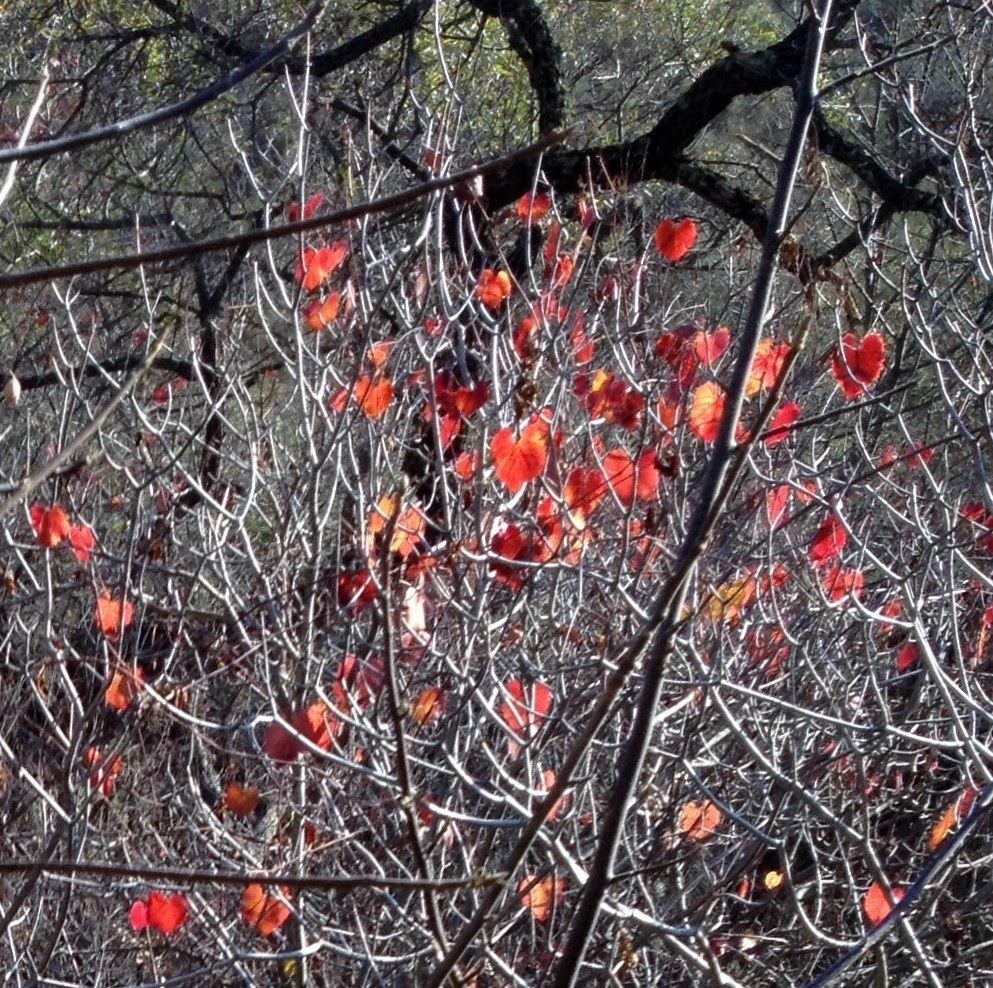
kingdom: Plantae
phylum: Tracheophyta
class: Magnoliopsida
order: Fabales
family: Fabaceae
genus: Cercis
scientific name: Cercis occidentalis
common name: California redbud
